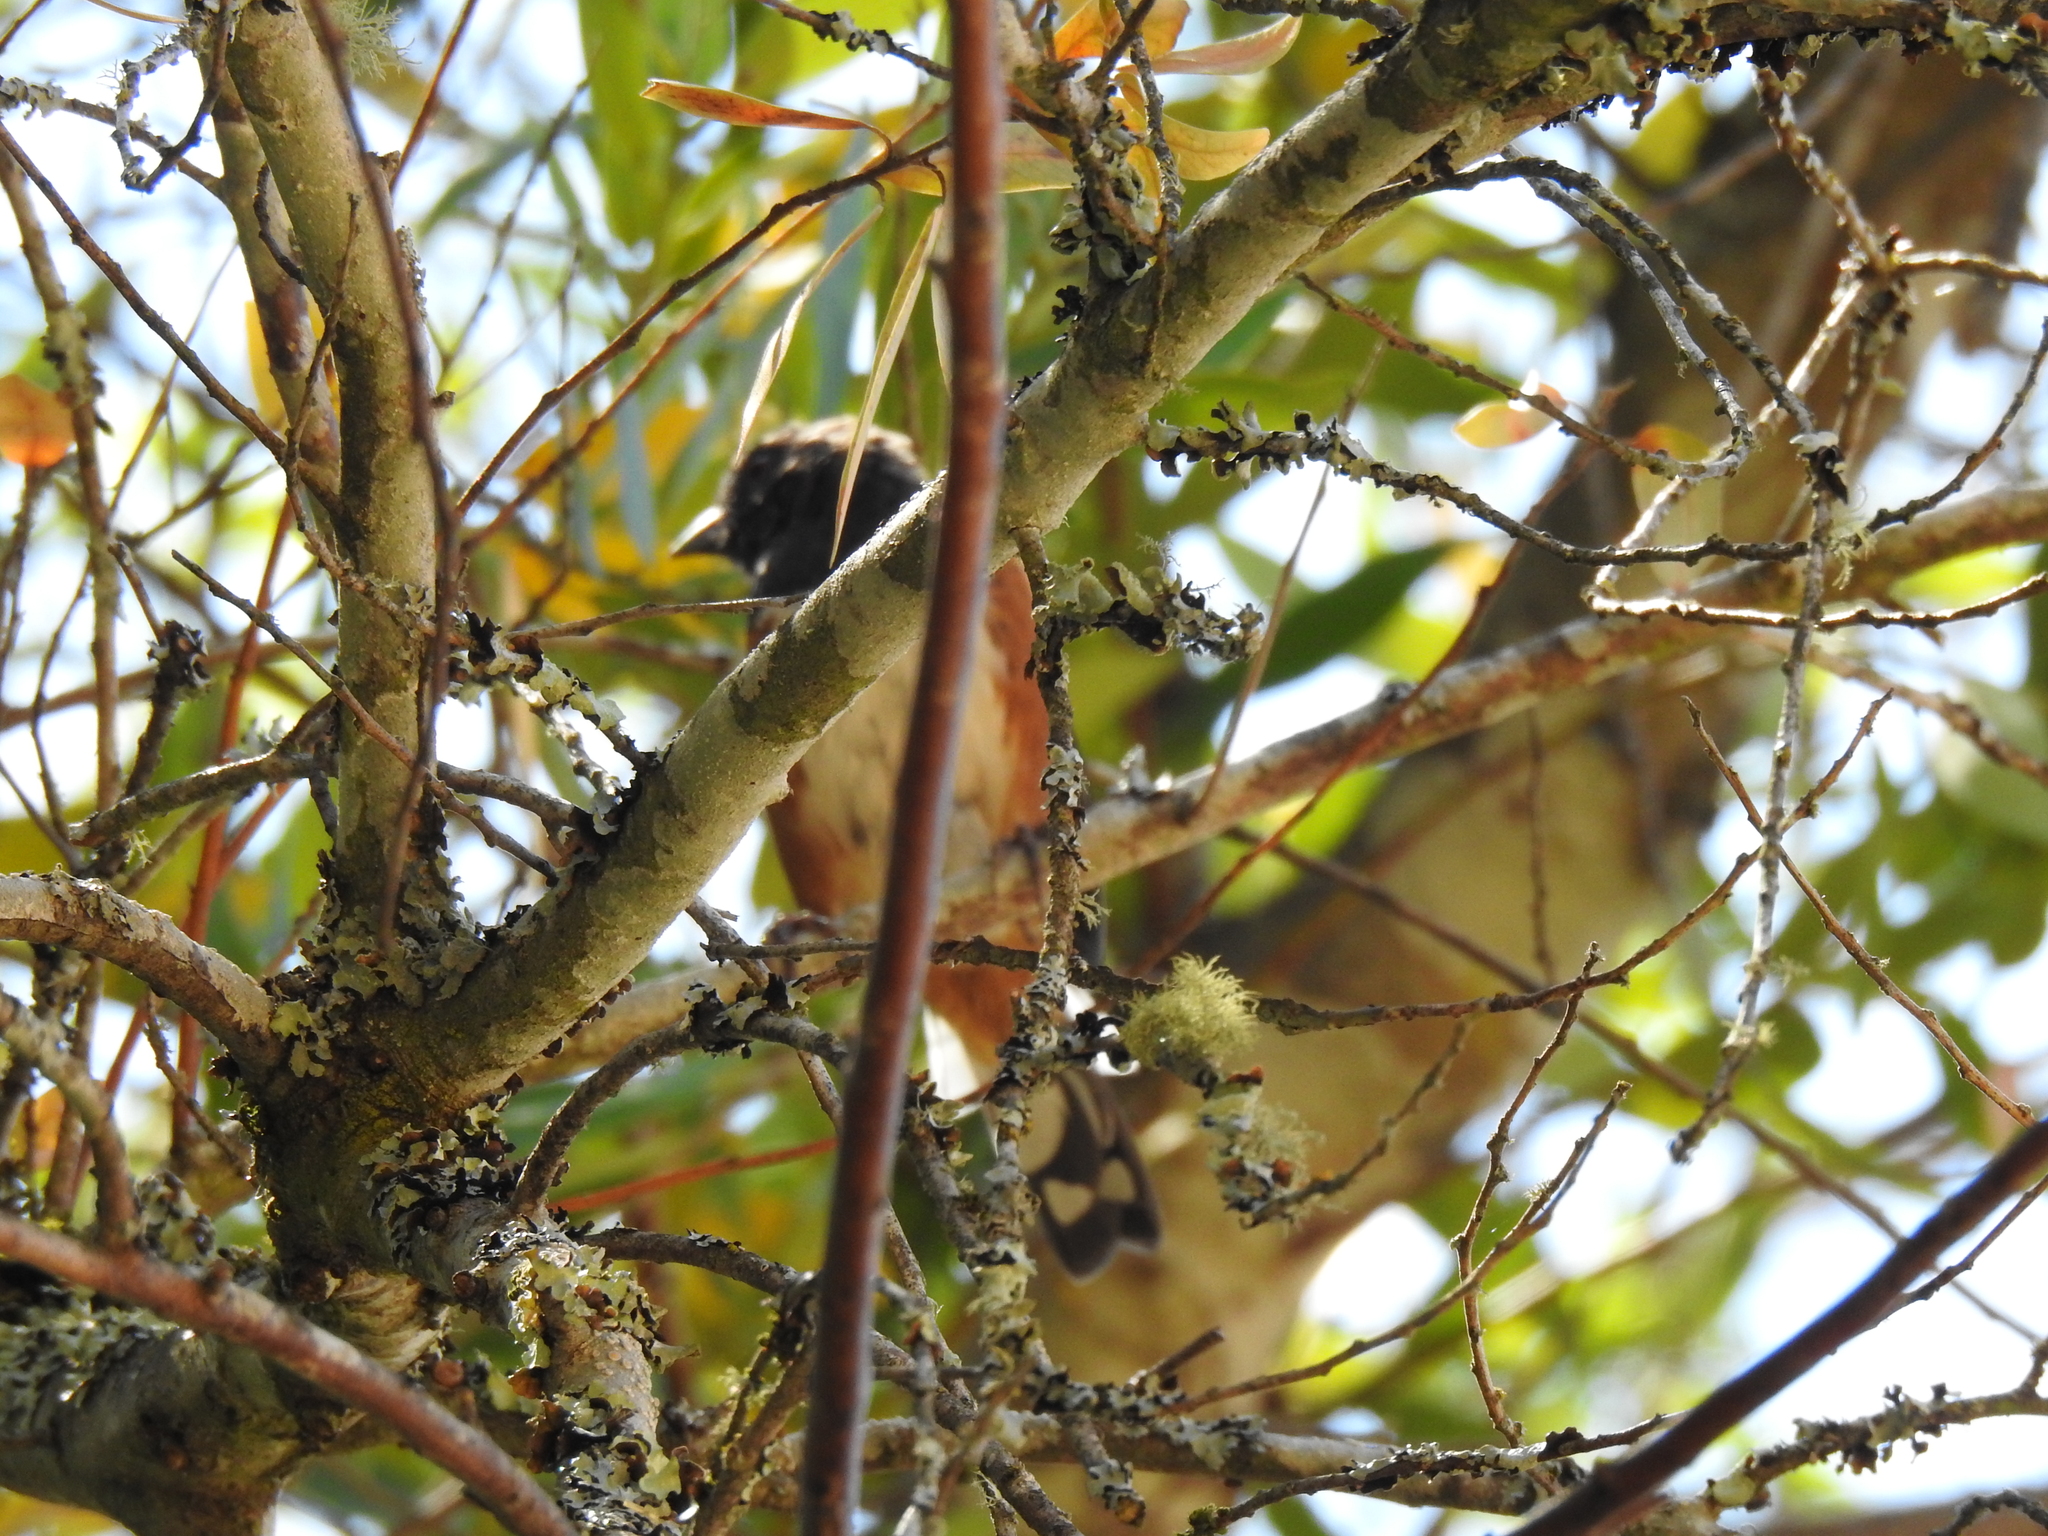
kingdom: Animalia
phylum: Chordata
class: Aves
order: Passeriformes
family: Passerellidae
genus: Pipilo
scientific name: Pipilo maculatus
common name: Spotted towhee
